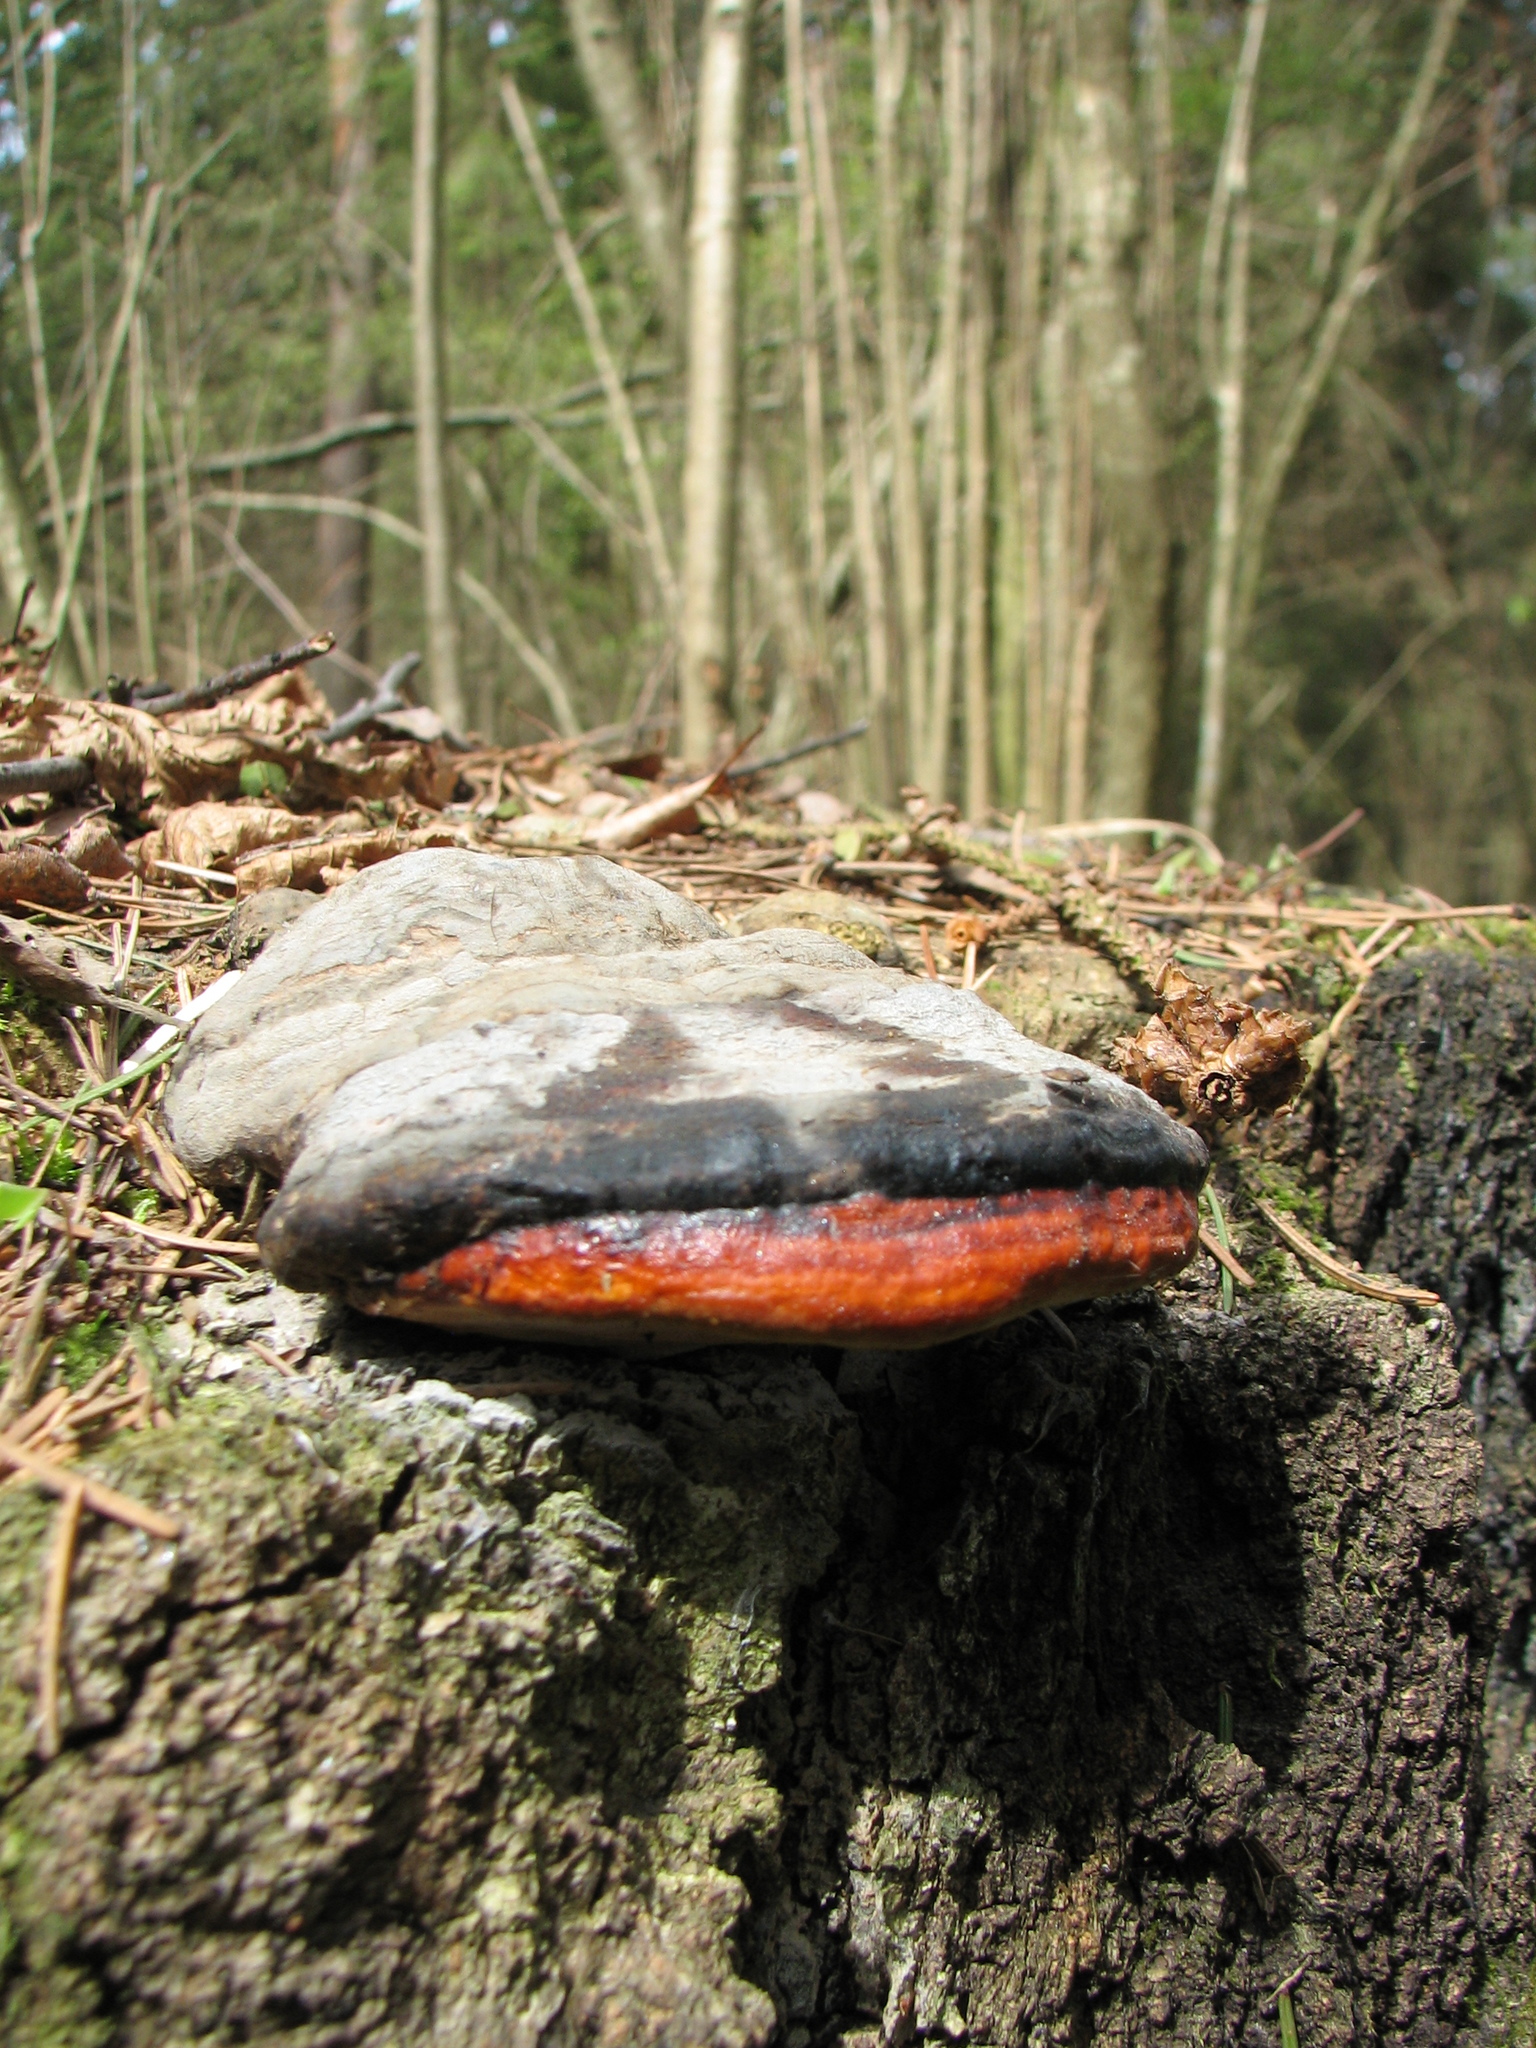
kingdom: Fungi
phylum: Basidiomycota
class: Agaricomycetes
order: Polyporales
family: Fomitopsidaceae
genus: Fomitopsis
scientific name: Fomitopsis pinicola
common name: Red-belted bracket
